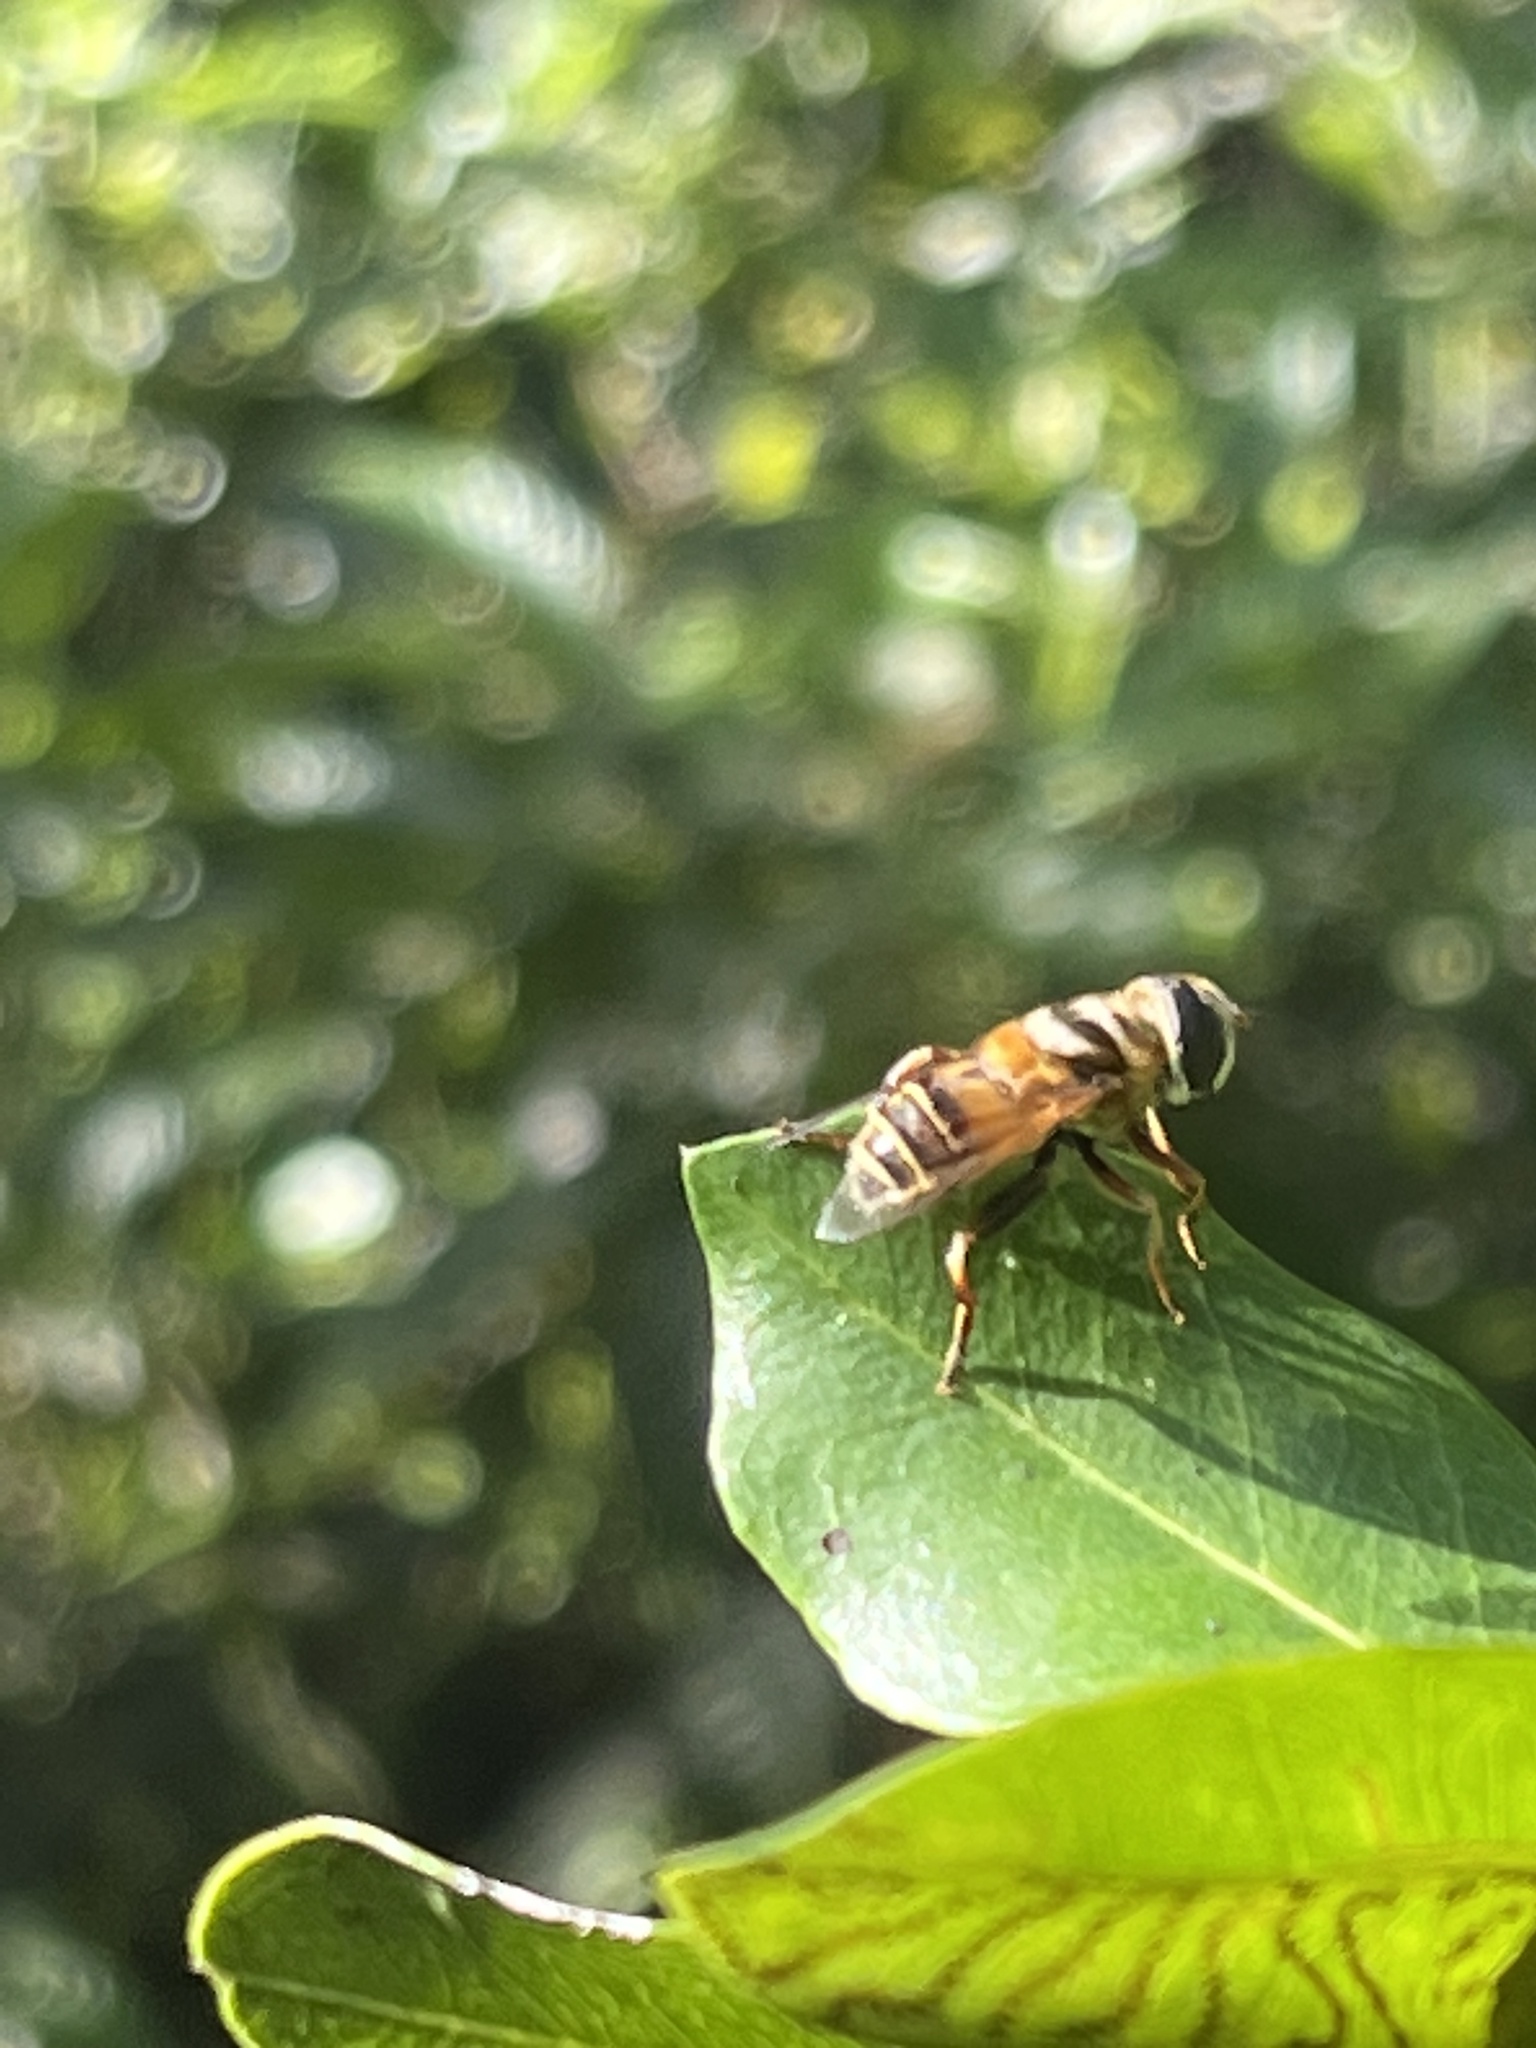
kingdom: Animalia
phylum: Arthropoda
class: Insecta
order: Diptera
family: Syrphidae
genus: Palpada
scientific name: Palpada vinetorum
